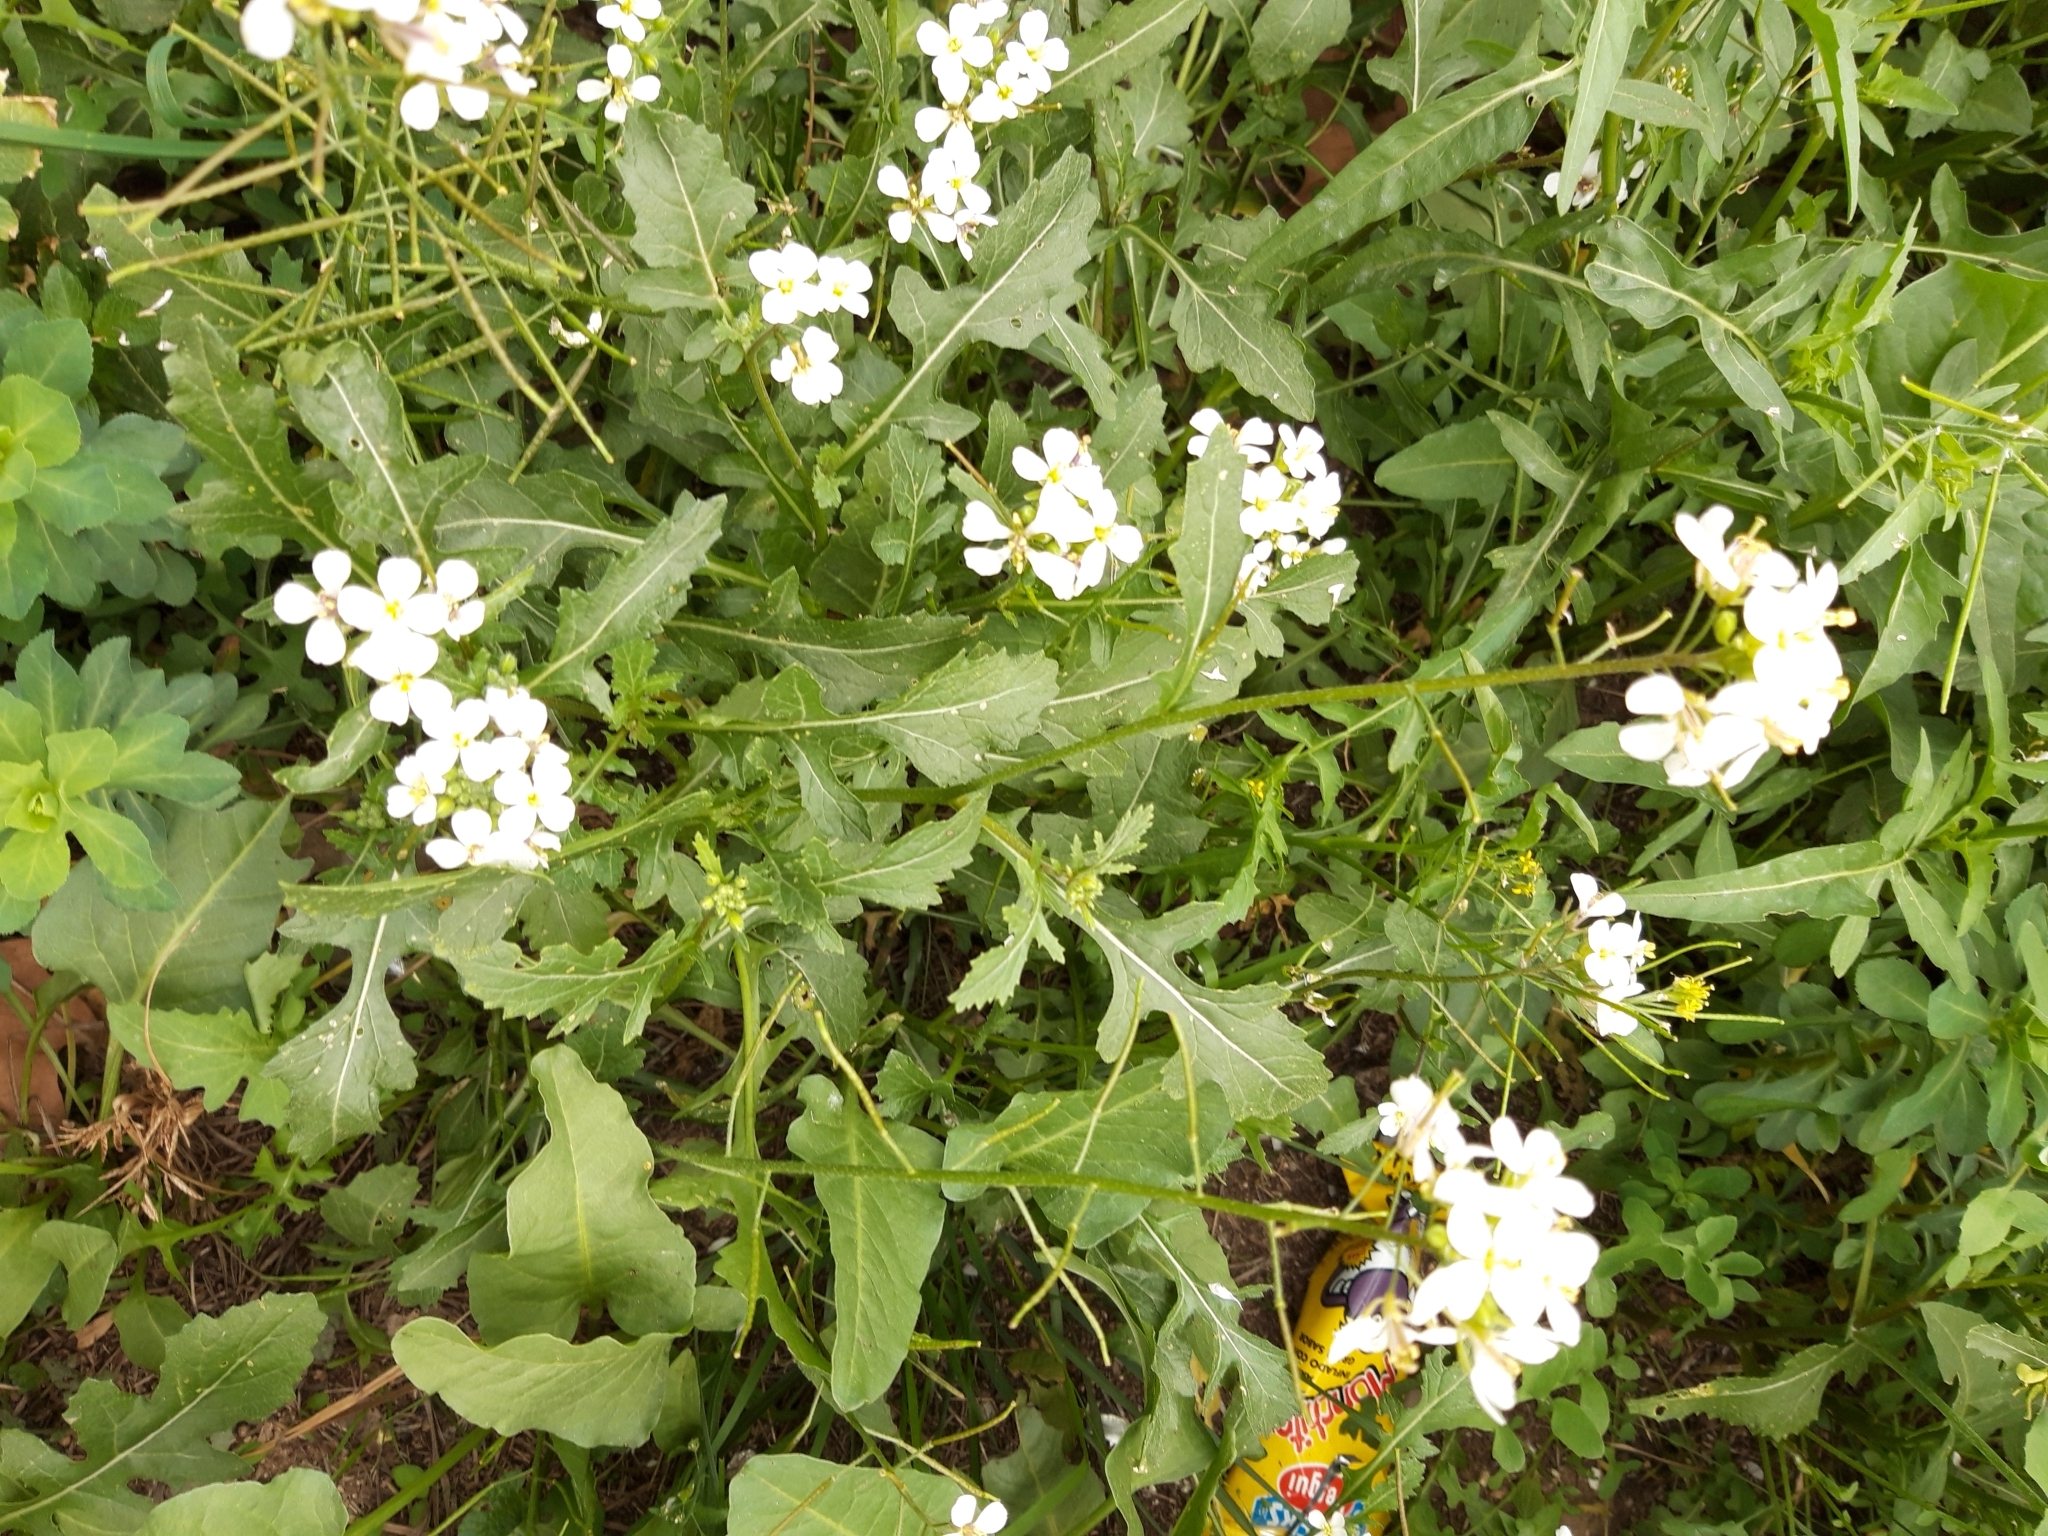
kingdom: Plantae
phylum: Tracheophyta
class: Magnoliopsida
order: Brassicales
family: Brassicaceae
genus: Diplotaxis
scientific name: Diplotaxis erucoides
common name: White rocket
